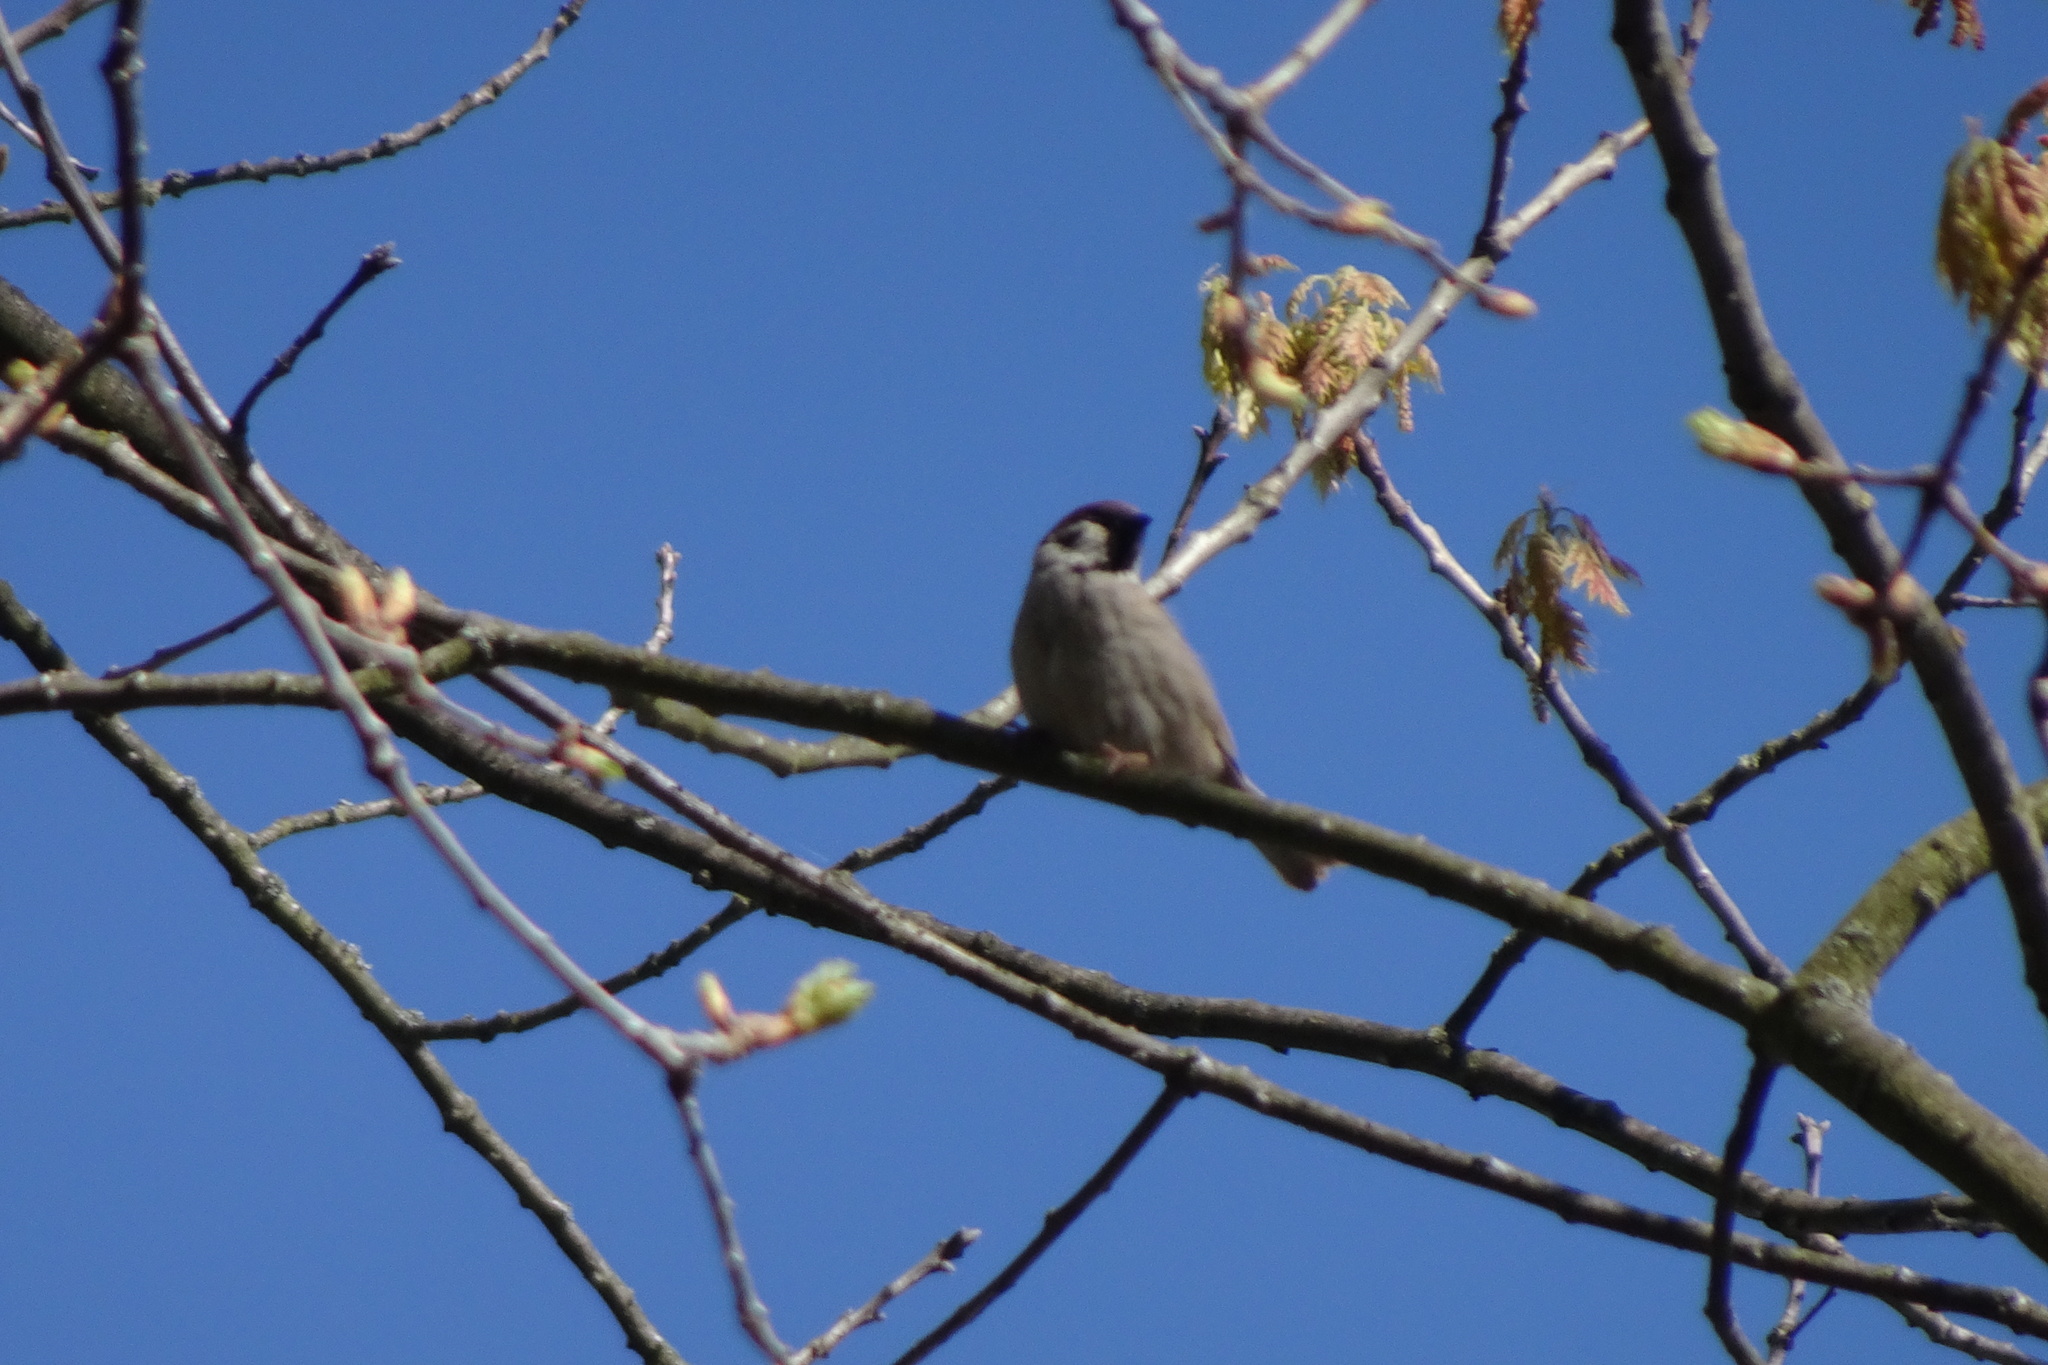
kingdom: Animalia
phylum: Chordata
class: Aves
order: Passeriformes
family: Passeridae
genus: Passer
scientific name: Passer montanus
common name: Eurasian tree sparrow
